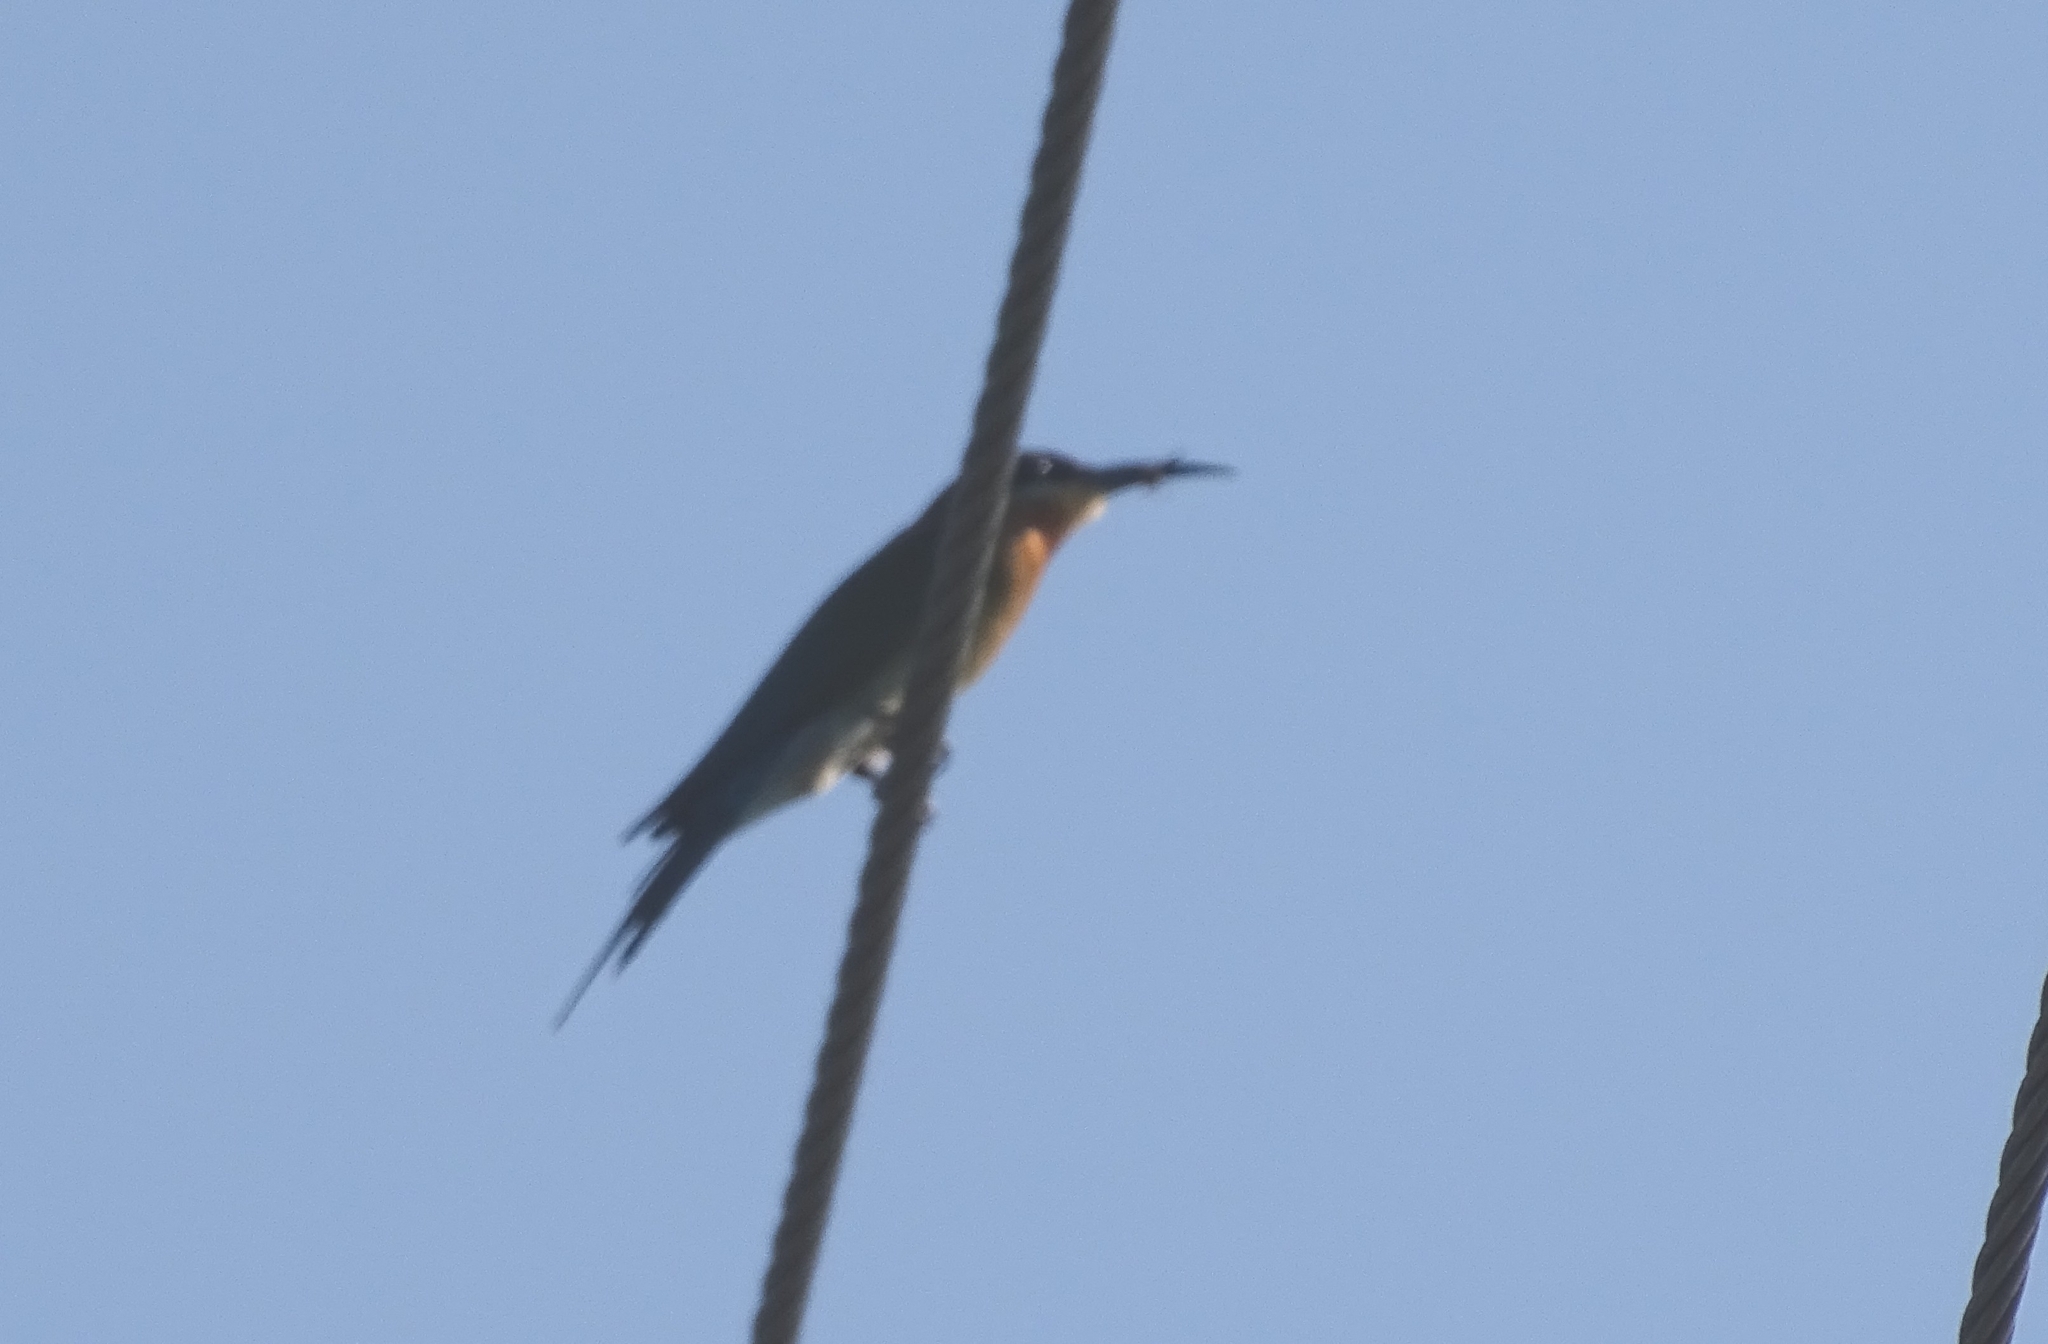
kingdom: Animalia
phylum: Chordata
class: Aves
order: Coraciiformes
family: Meropidae
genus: Merops
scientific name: Merops philippinus
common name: Blue-tailed bee-eater
